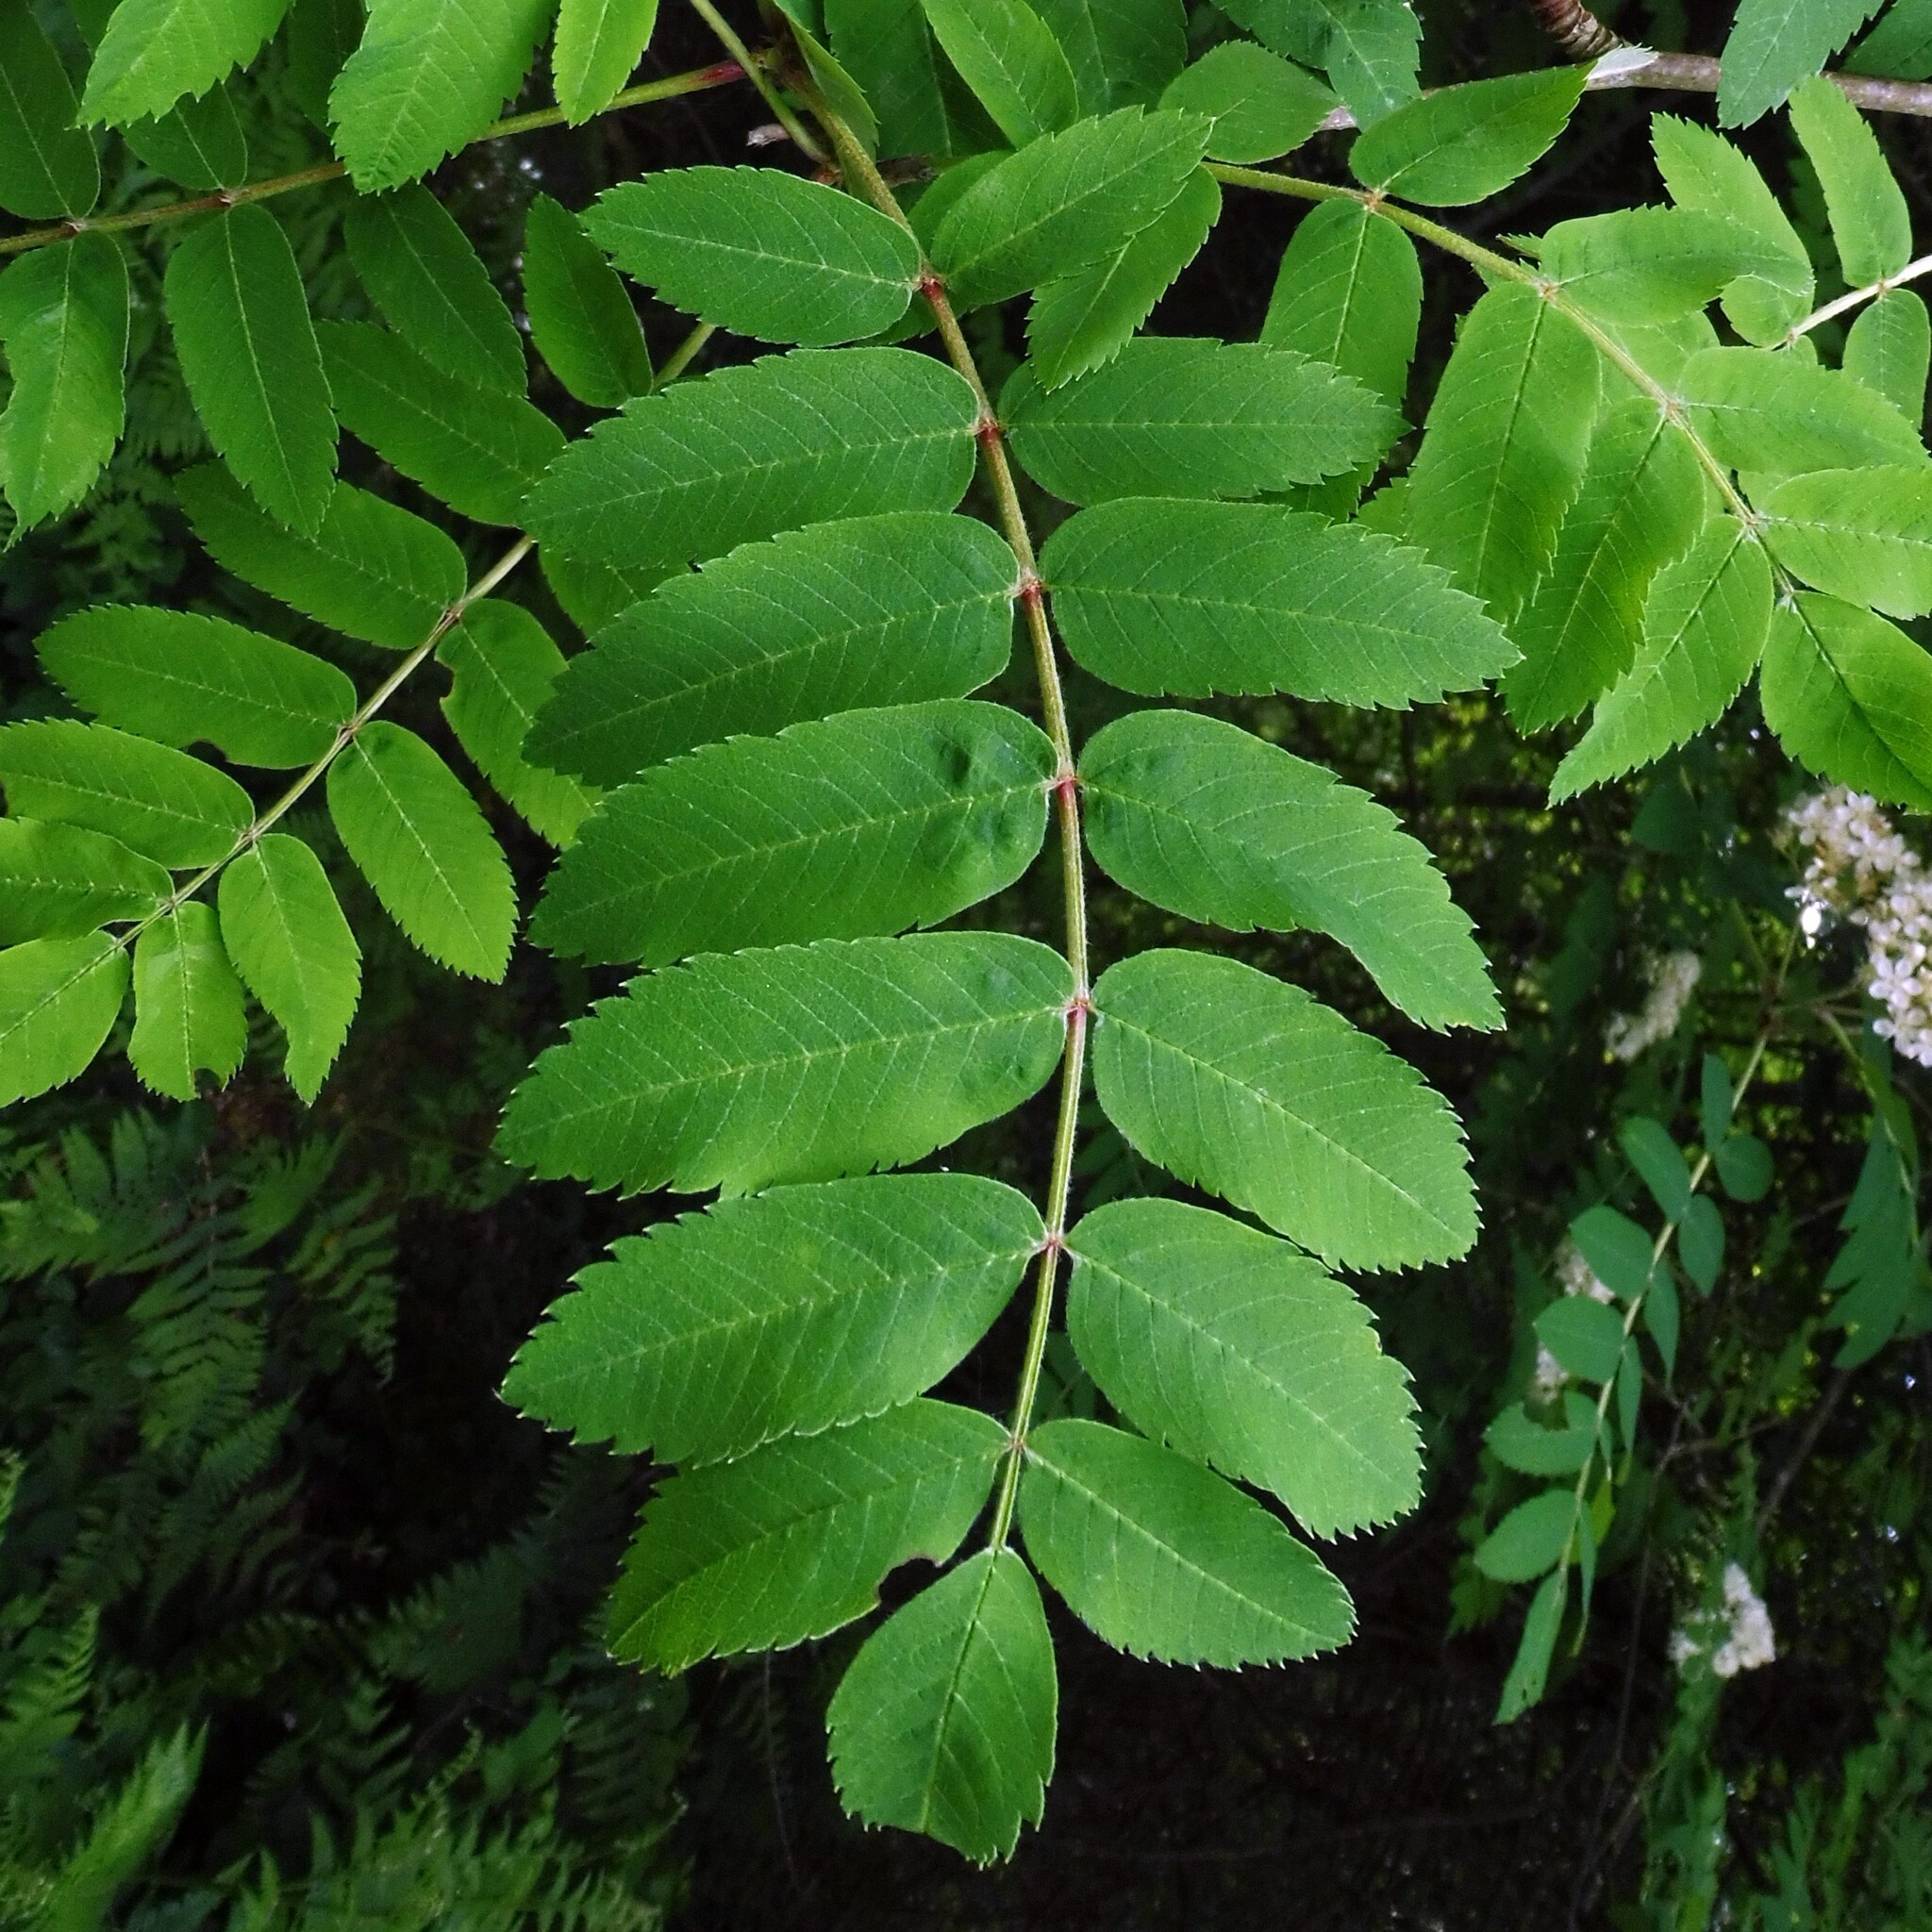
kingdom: Plantae
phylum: Tracheophyta
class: Magnoliopsida
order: Rosales
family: Rosaceae
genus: Sorbus
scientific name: Sorbus aucuparia
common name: Rowan
